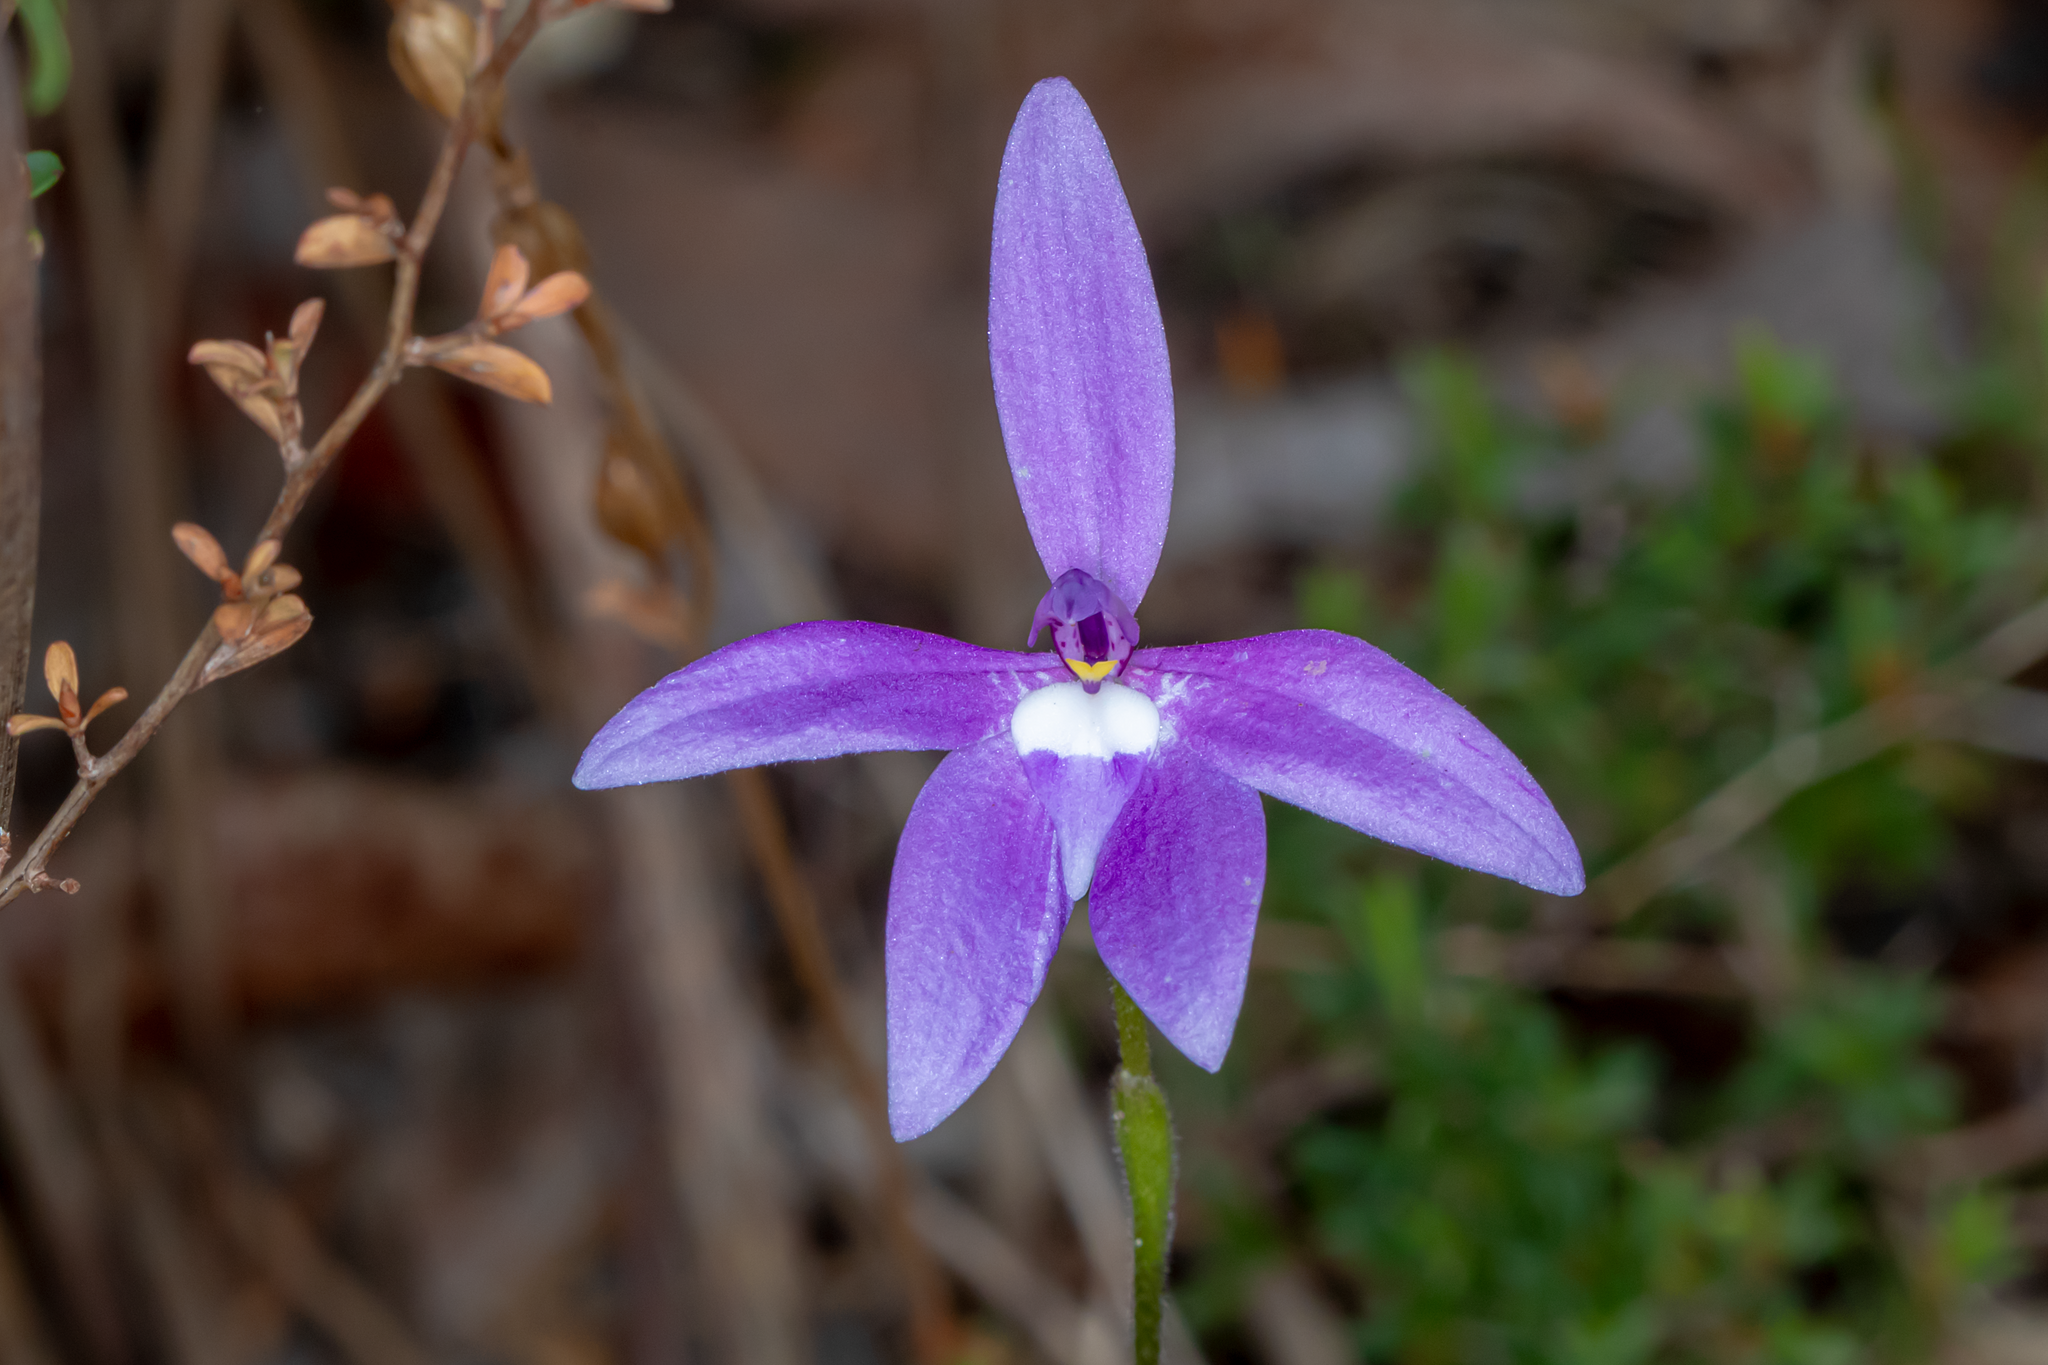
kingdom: Plantae
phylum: Tracheophyta
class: Liliopsida
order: Asparagales
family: Orchidaceae
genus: Caladenia
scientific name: Caladenia major
